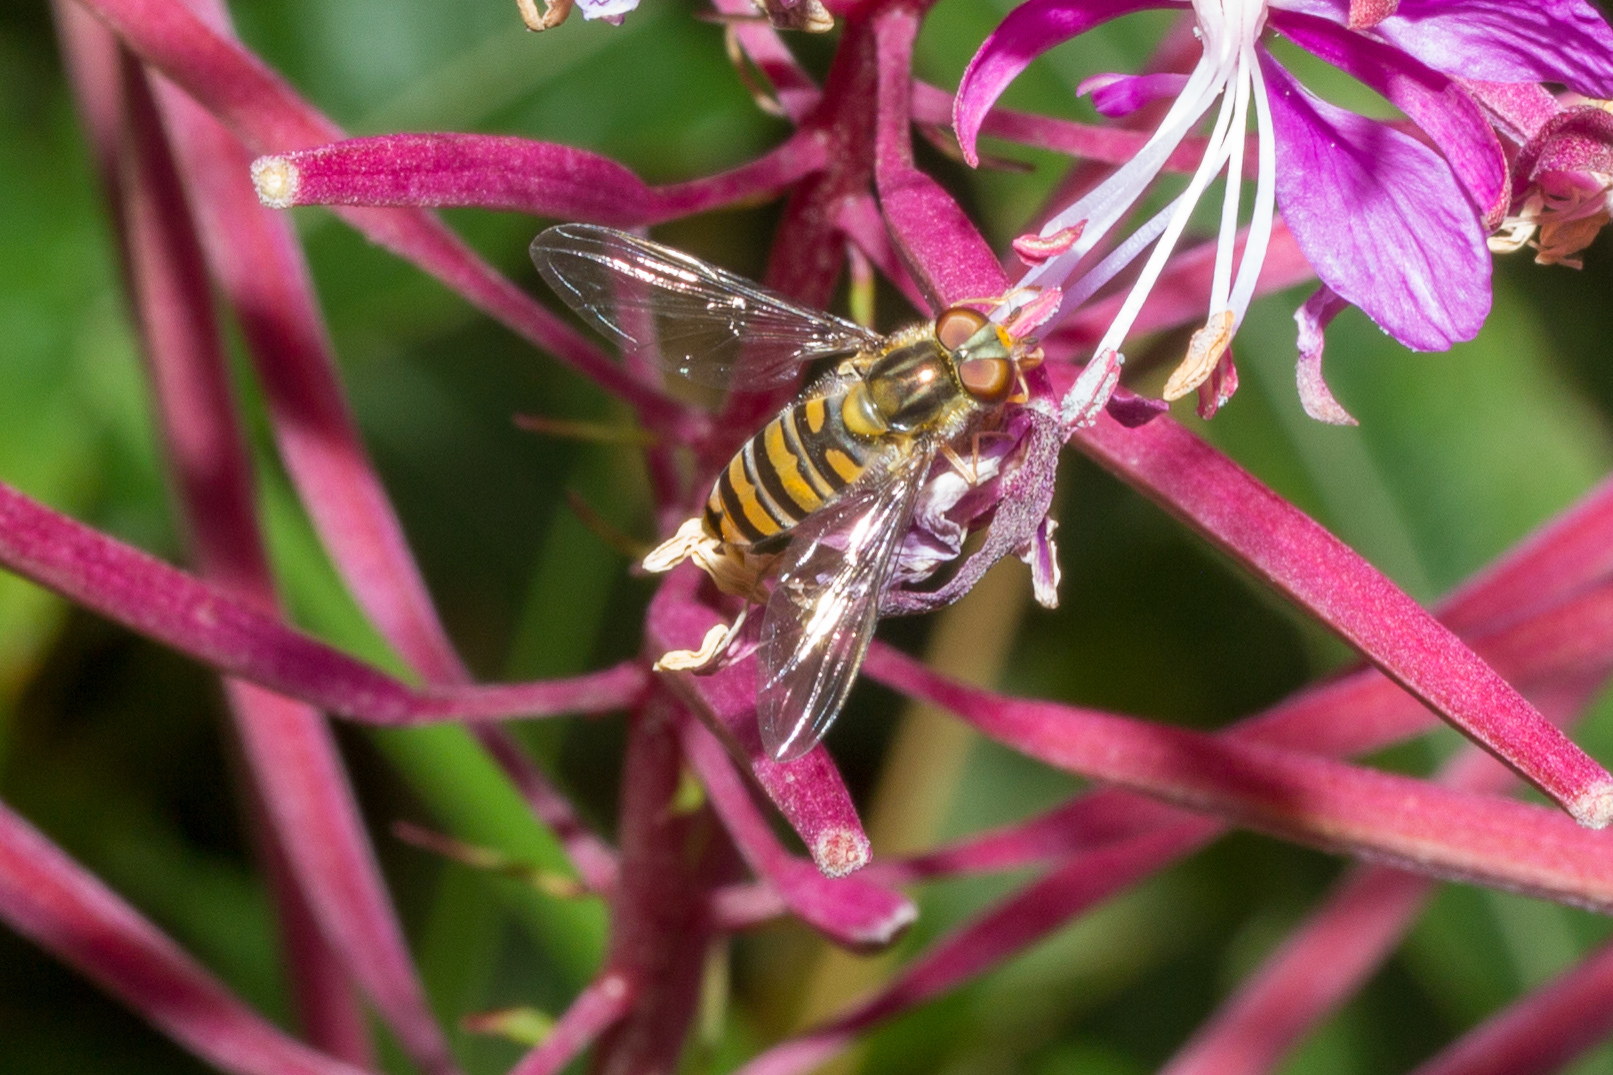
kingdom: Animalia
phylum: Arthropoda
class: Insecta
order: Diptera
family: Syrphidae
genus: Episyrphus
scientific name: Episyrphus balteatus
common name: Marmalade hoverfly
